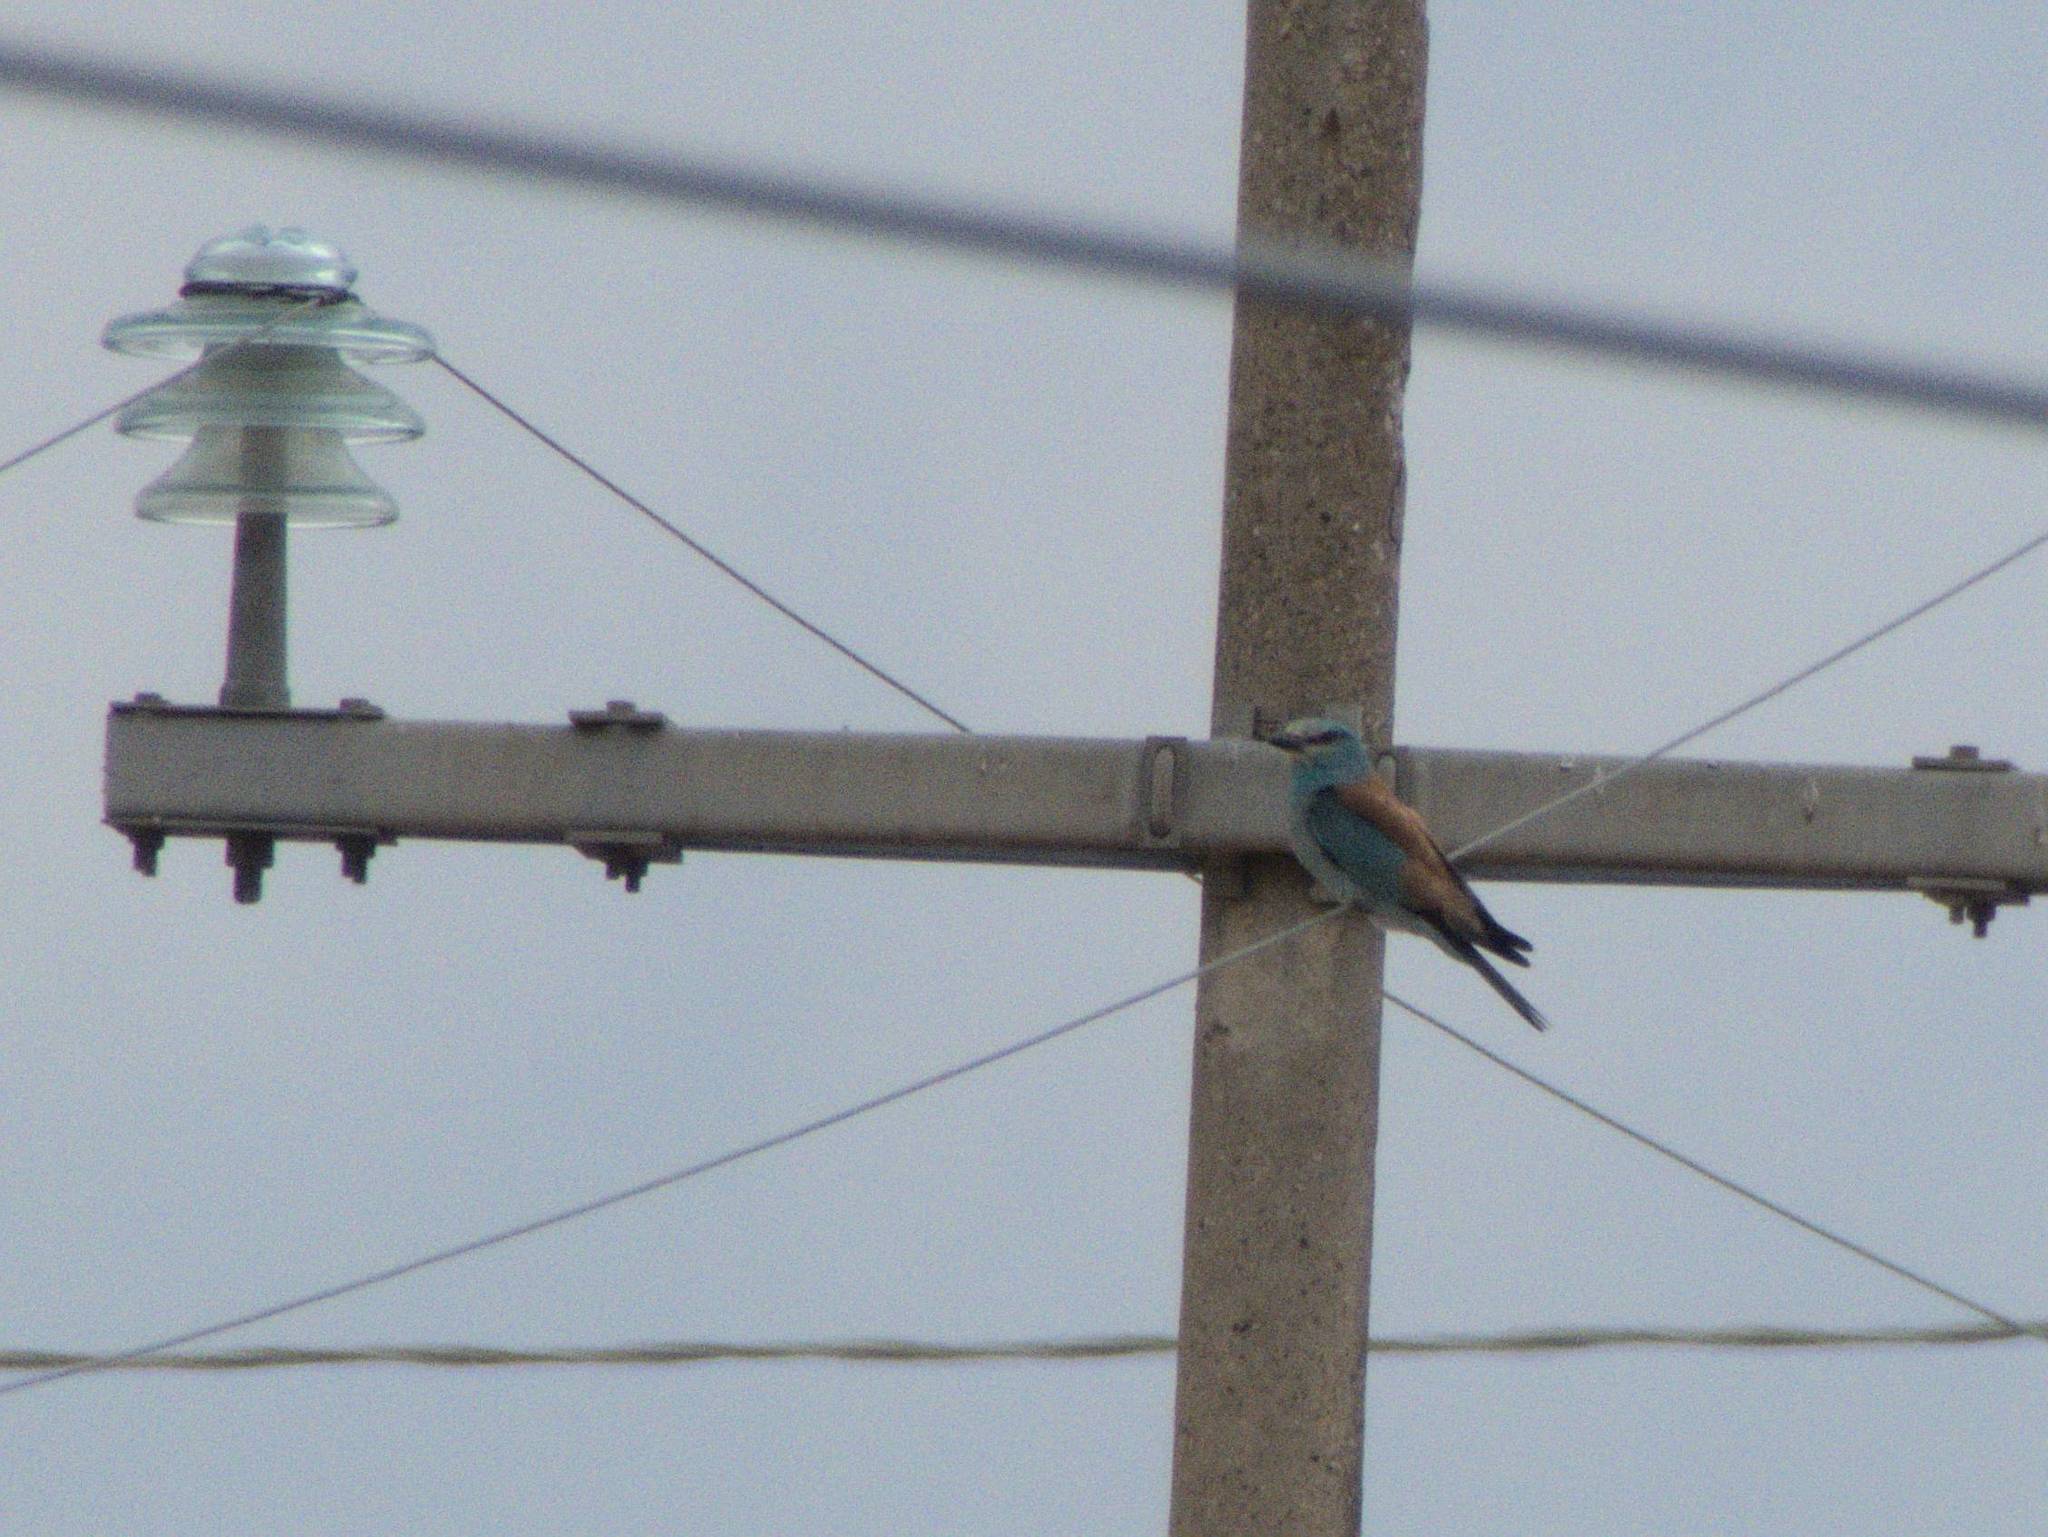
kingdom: Animalia
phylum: Chordata
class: Aves
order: Coraciiformes
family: Coraciidae
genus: Coracias
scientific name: Coracias garrulus
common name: European roller
